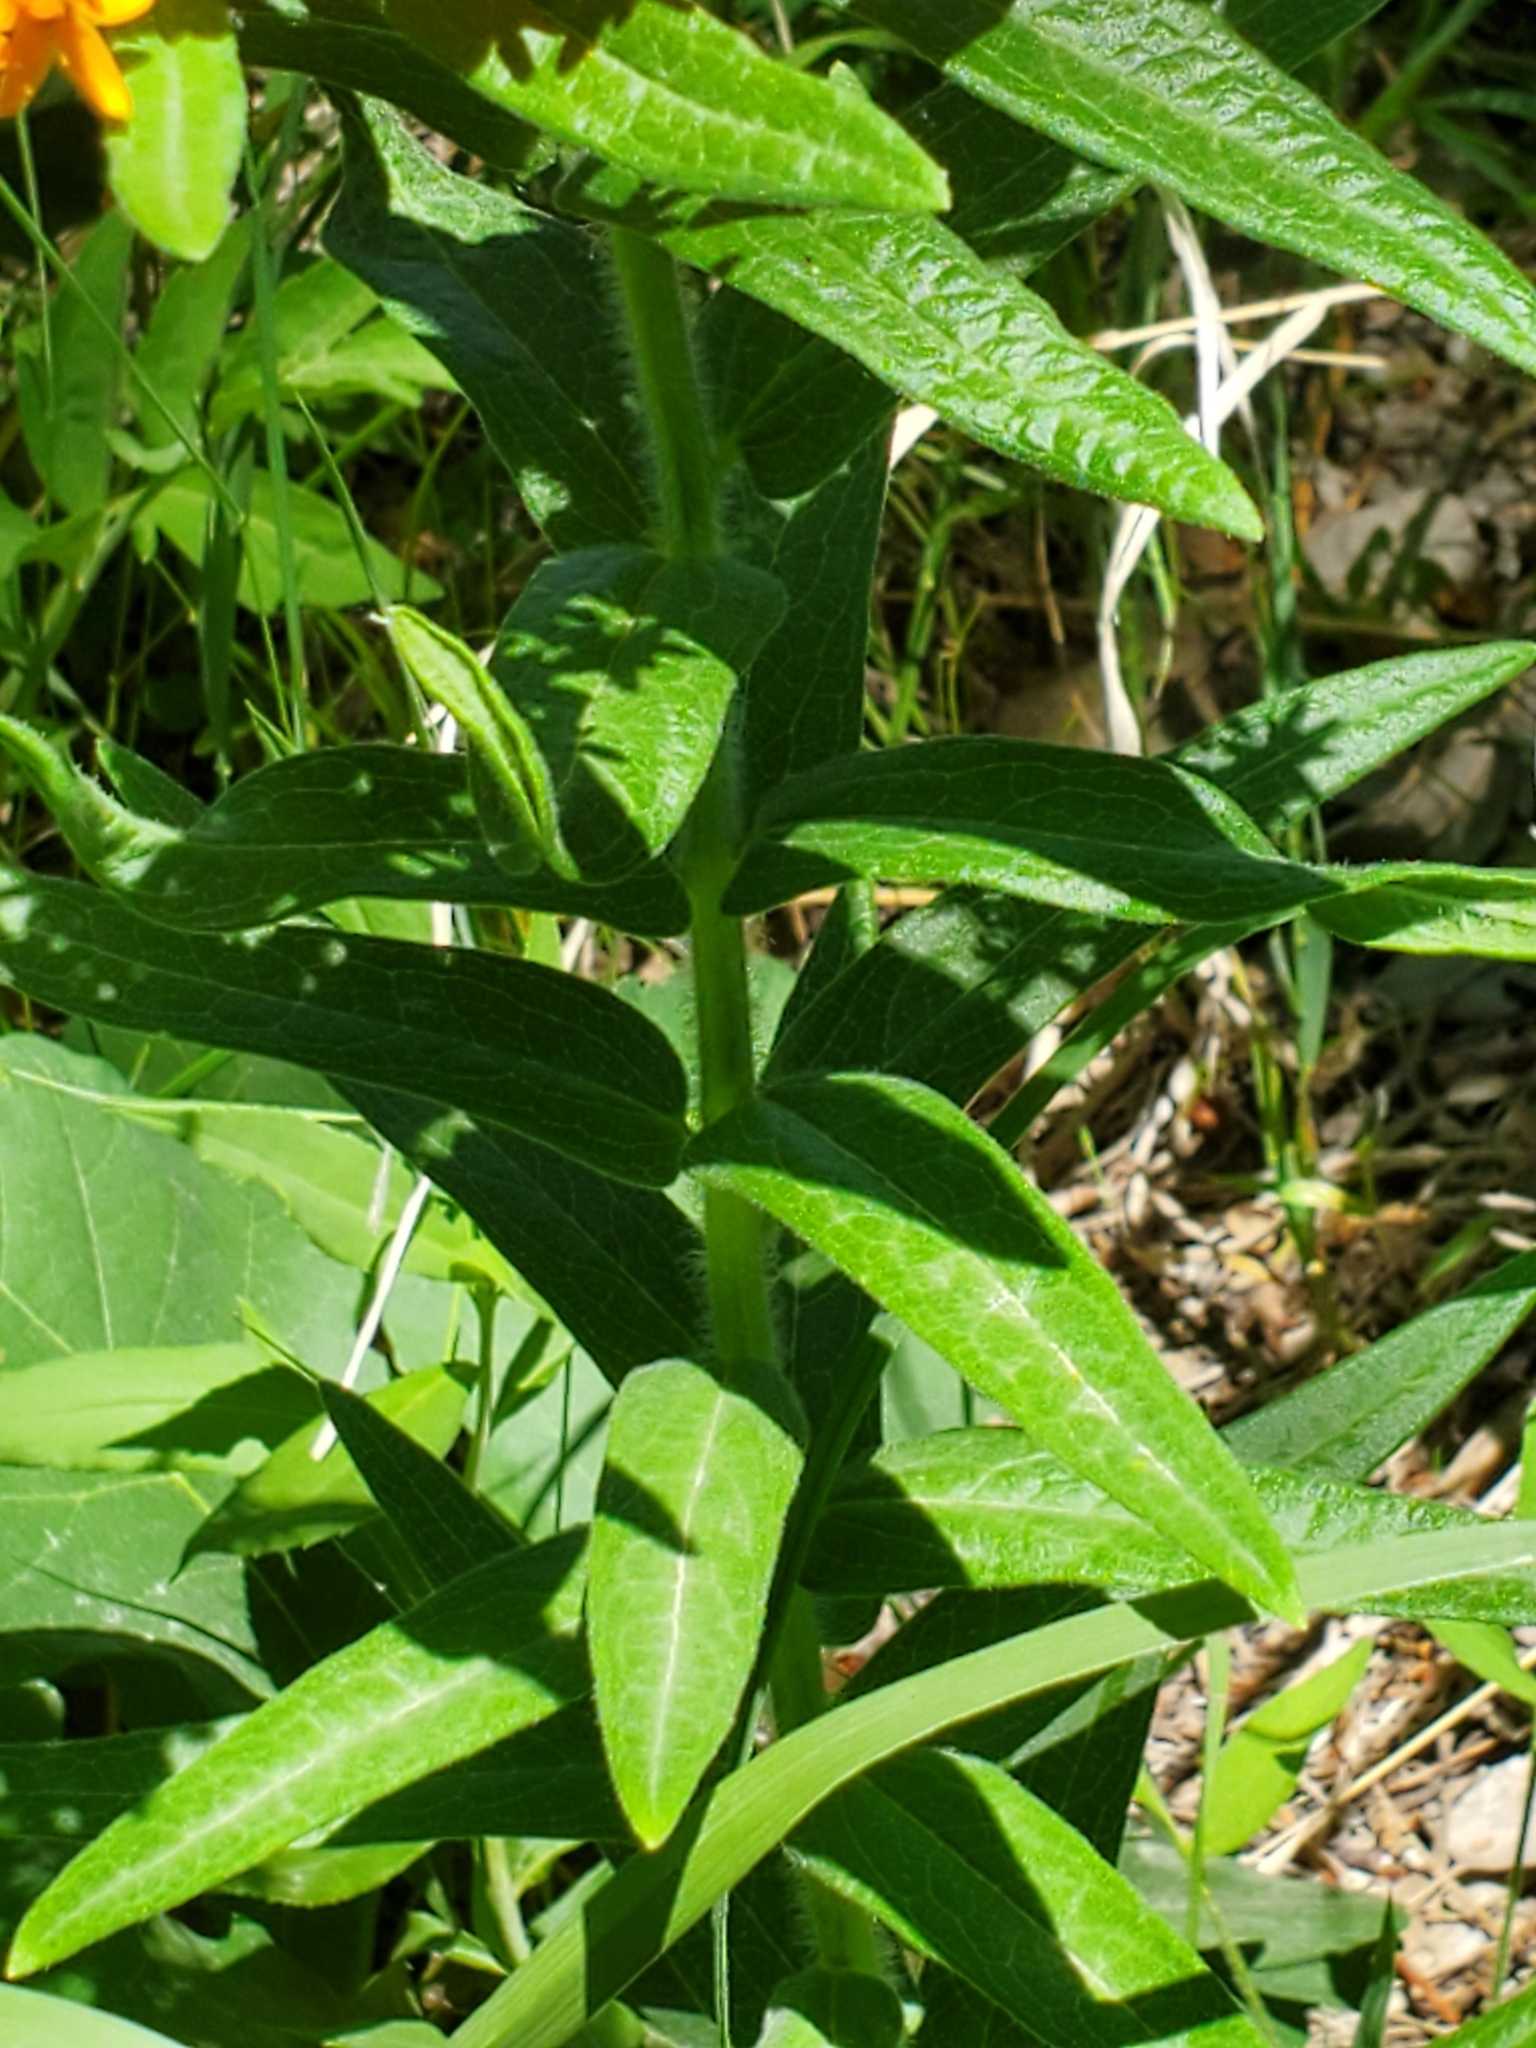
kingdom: Plantae
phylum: Tracheophyta
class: Magnoliopsida
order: Gentianales
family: Apocynaceae
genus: Asclepias
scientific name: Asclepias tuberosa
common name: Butterfly milkweed
